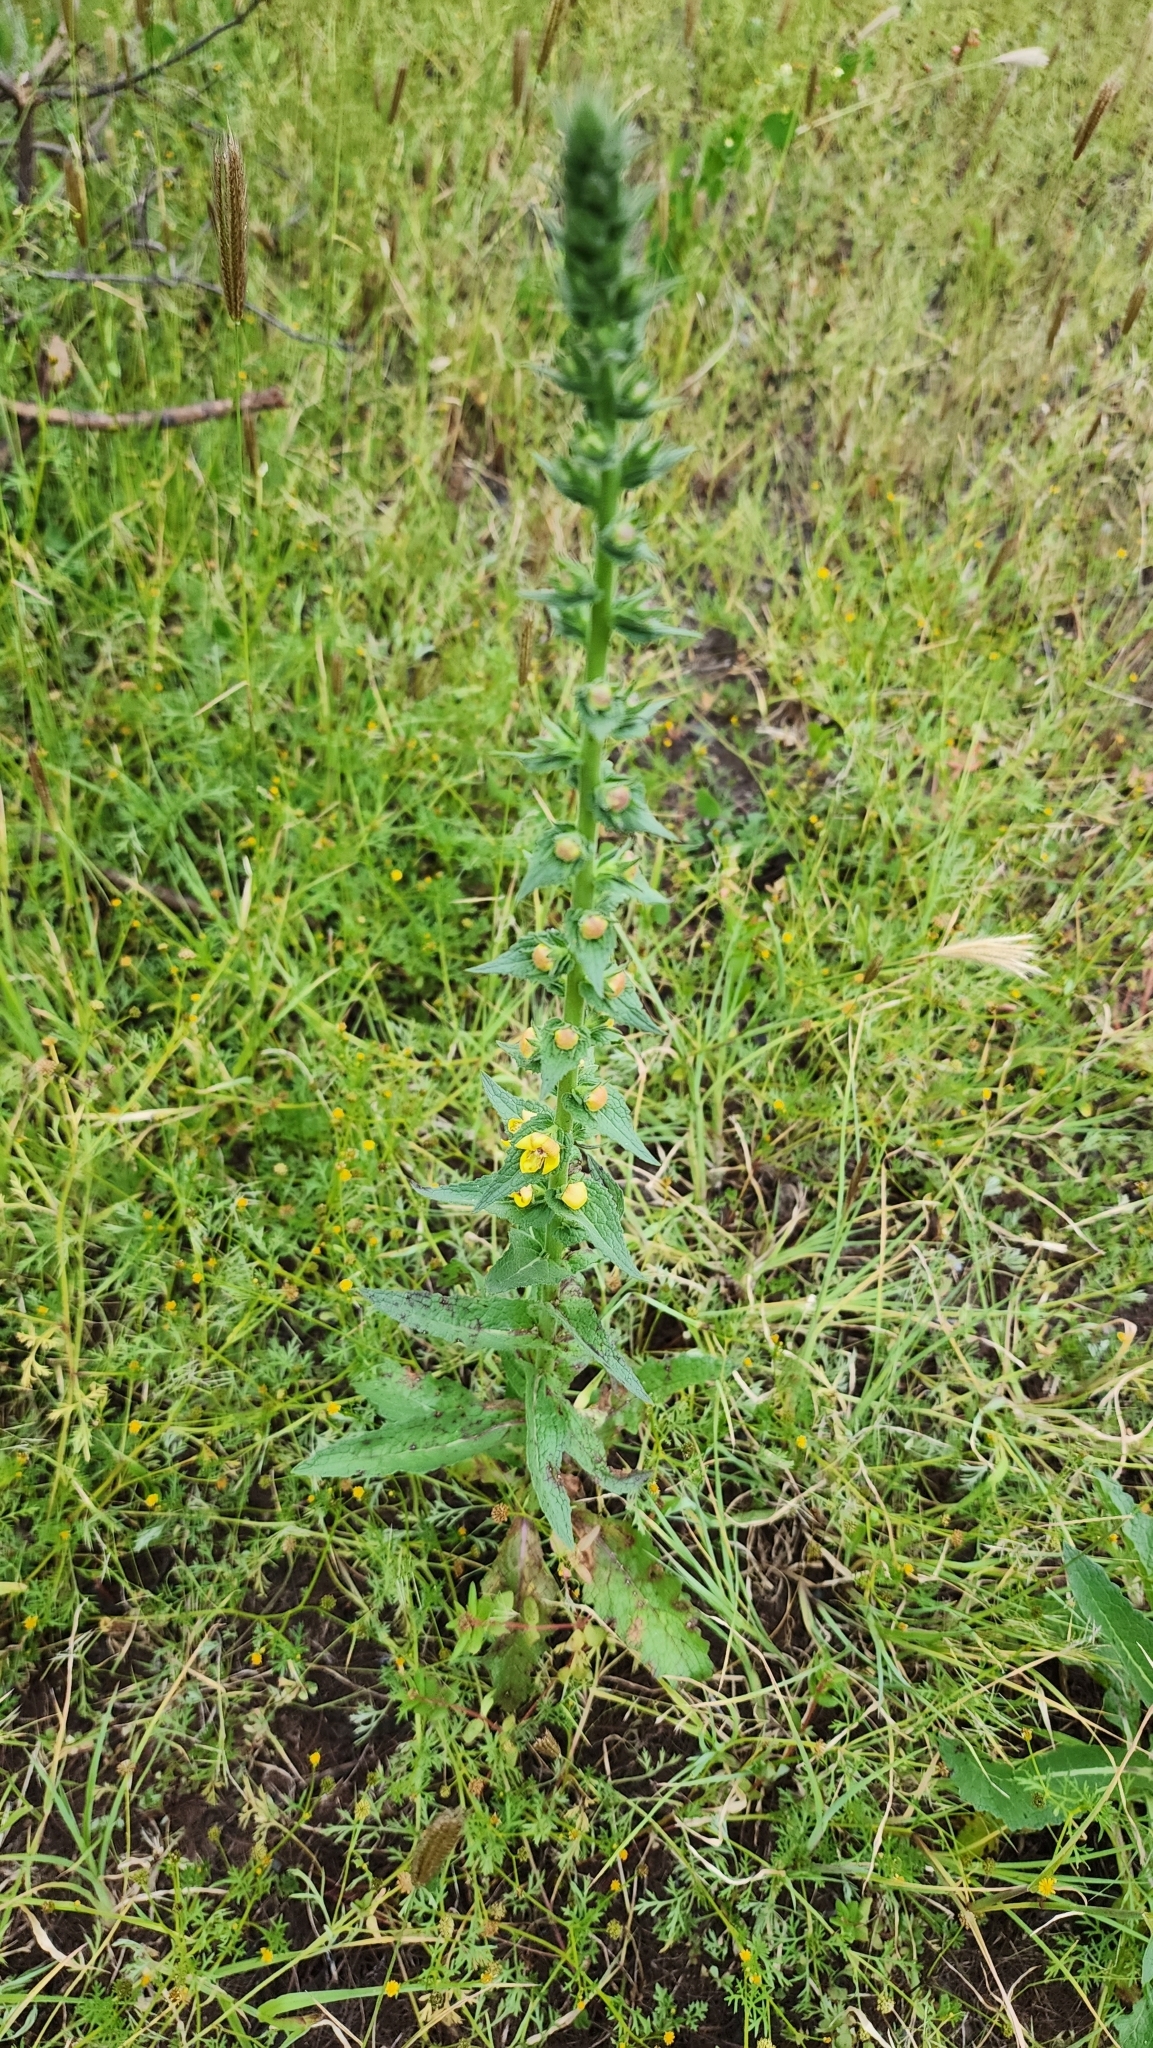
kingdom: Plantae
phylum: Tracheophyta
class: Magnoliopsida
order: Lamiales
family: Scrophulariaceae
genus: Verbascum
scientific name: Verbascum virgatum
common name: Twiggy mullein
